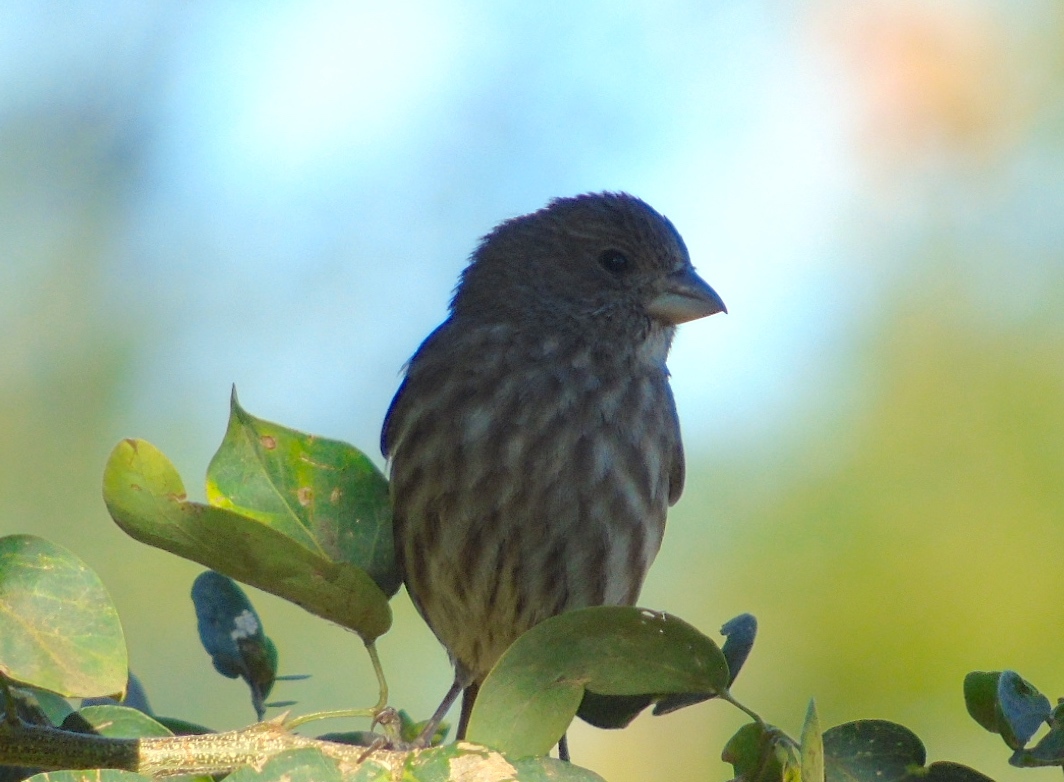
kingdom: Animalia
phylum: Chordata
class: Aves
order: Passeriformes
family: Fringillidae
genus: Haemorhous
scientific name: Haemorhous mexicanus
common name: House finch
